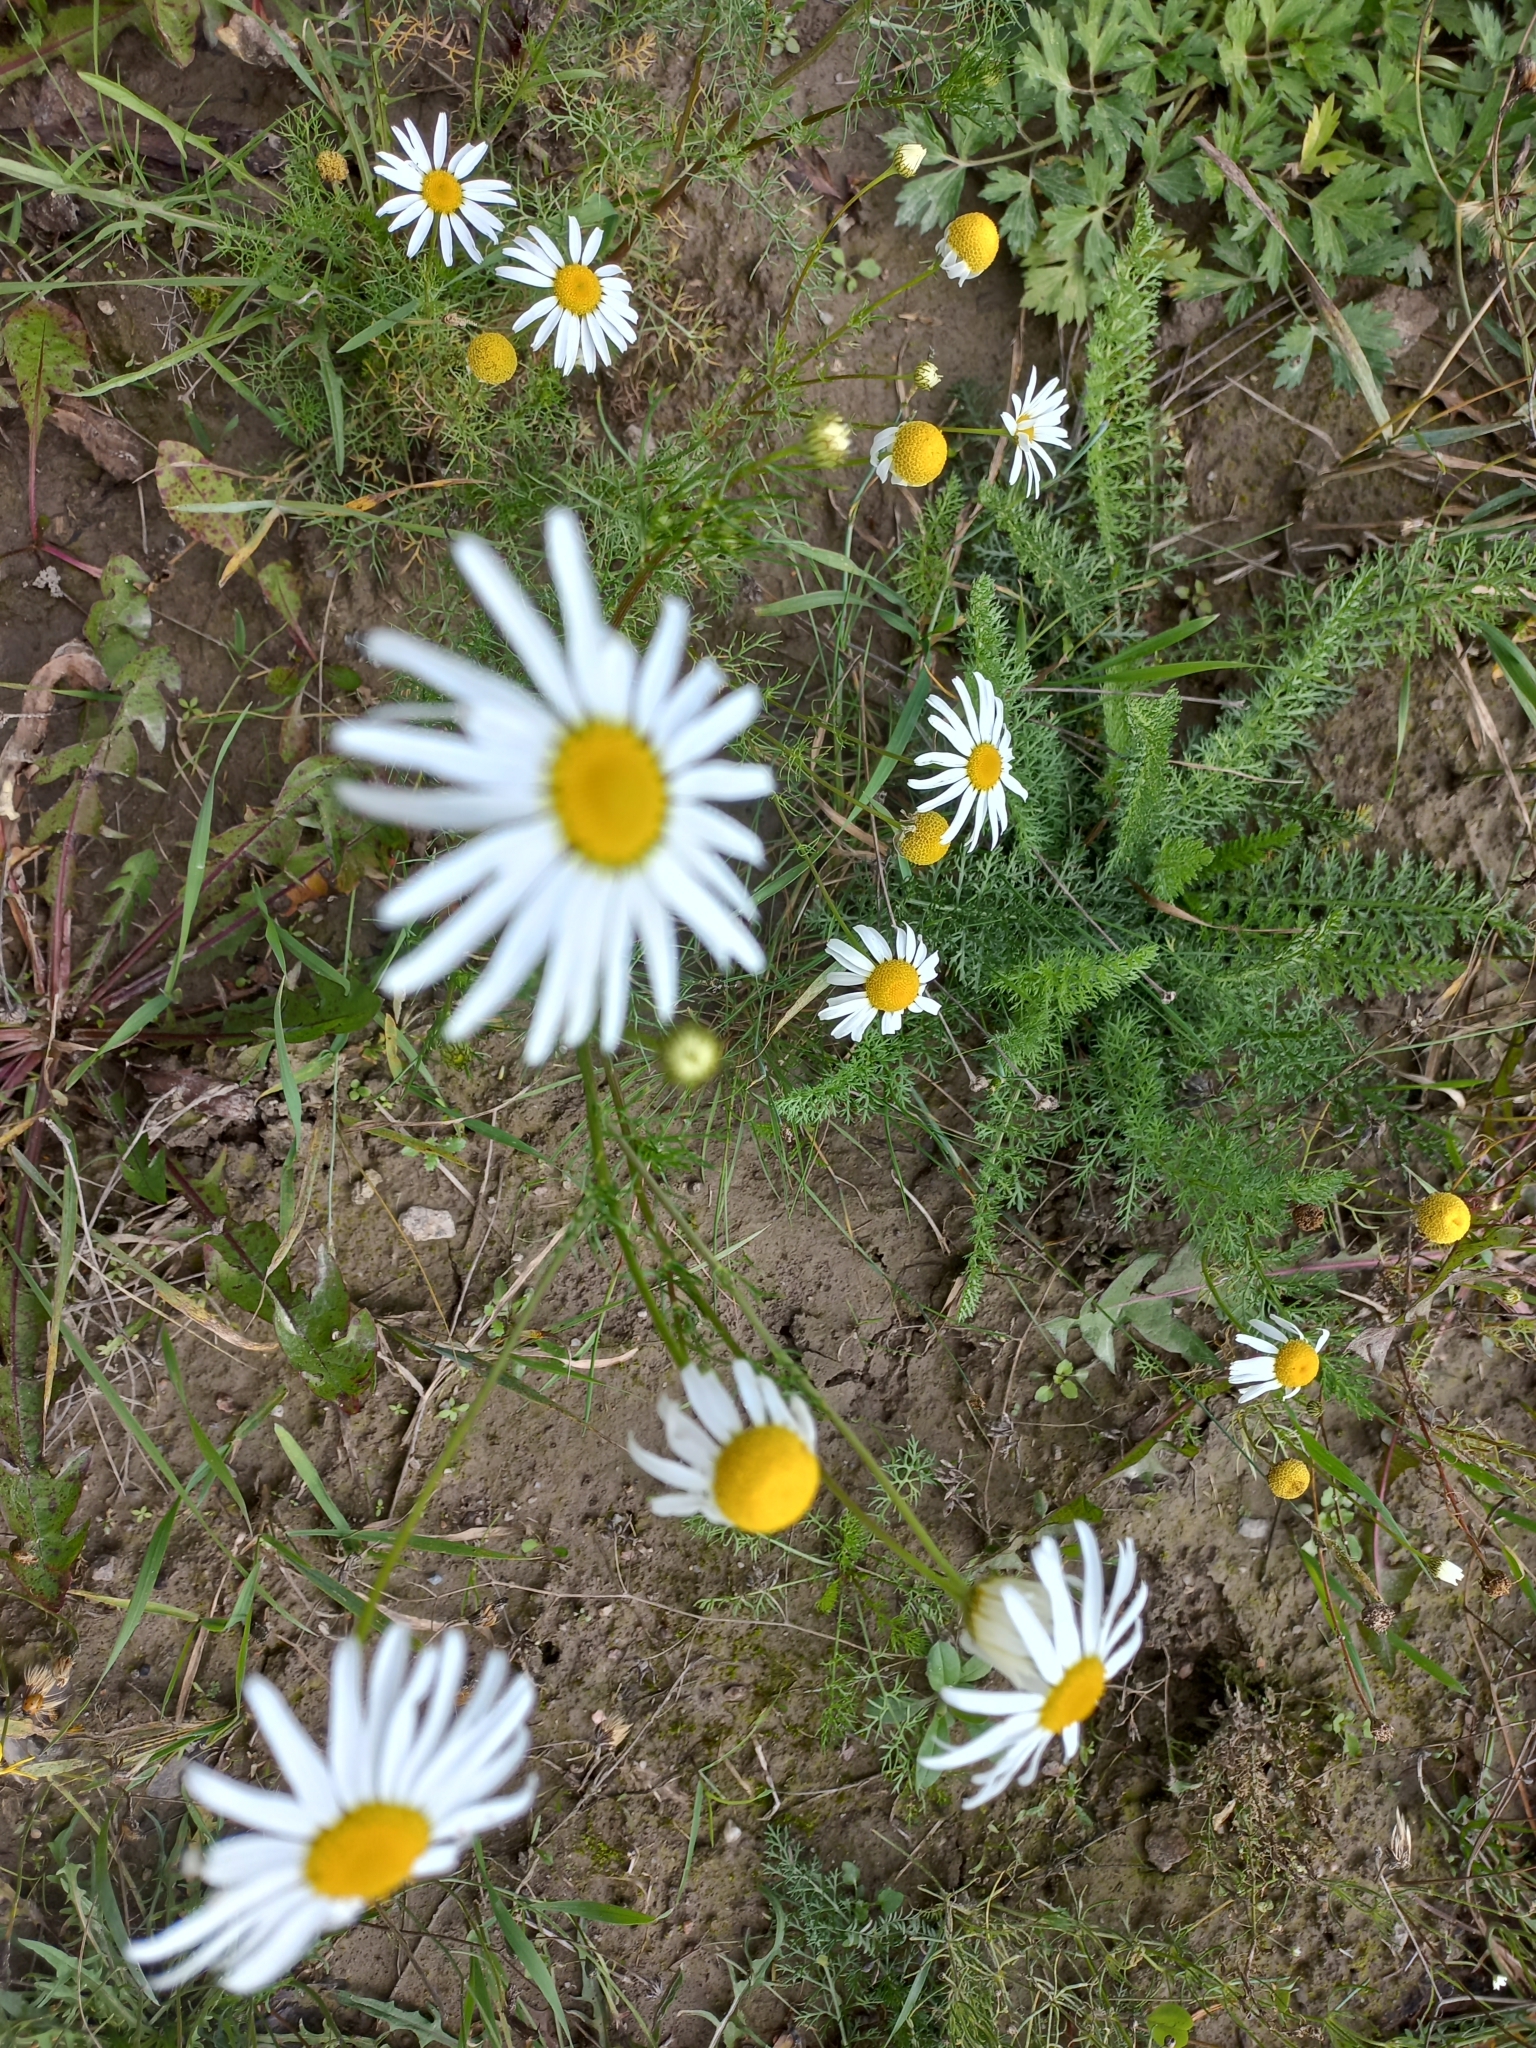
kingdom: Plantae
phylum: Tracheophyta
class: Magnoliopsida
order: Asterales
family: Asteraceae
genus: Tripleurospermum
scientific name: Tripleurospermum inodorum
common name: Scentless mayweed
